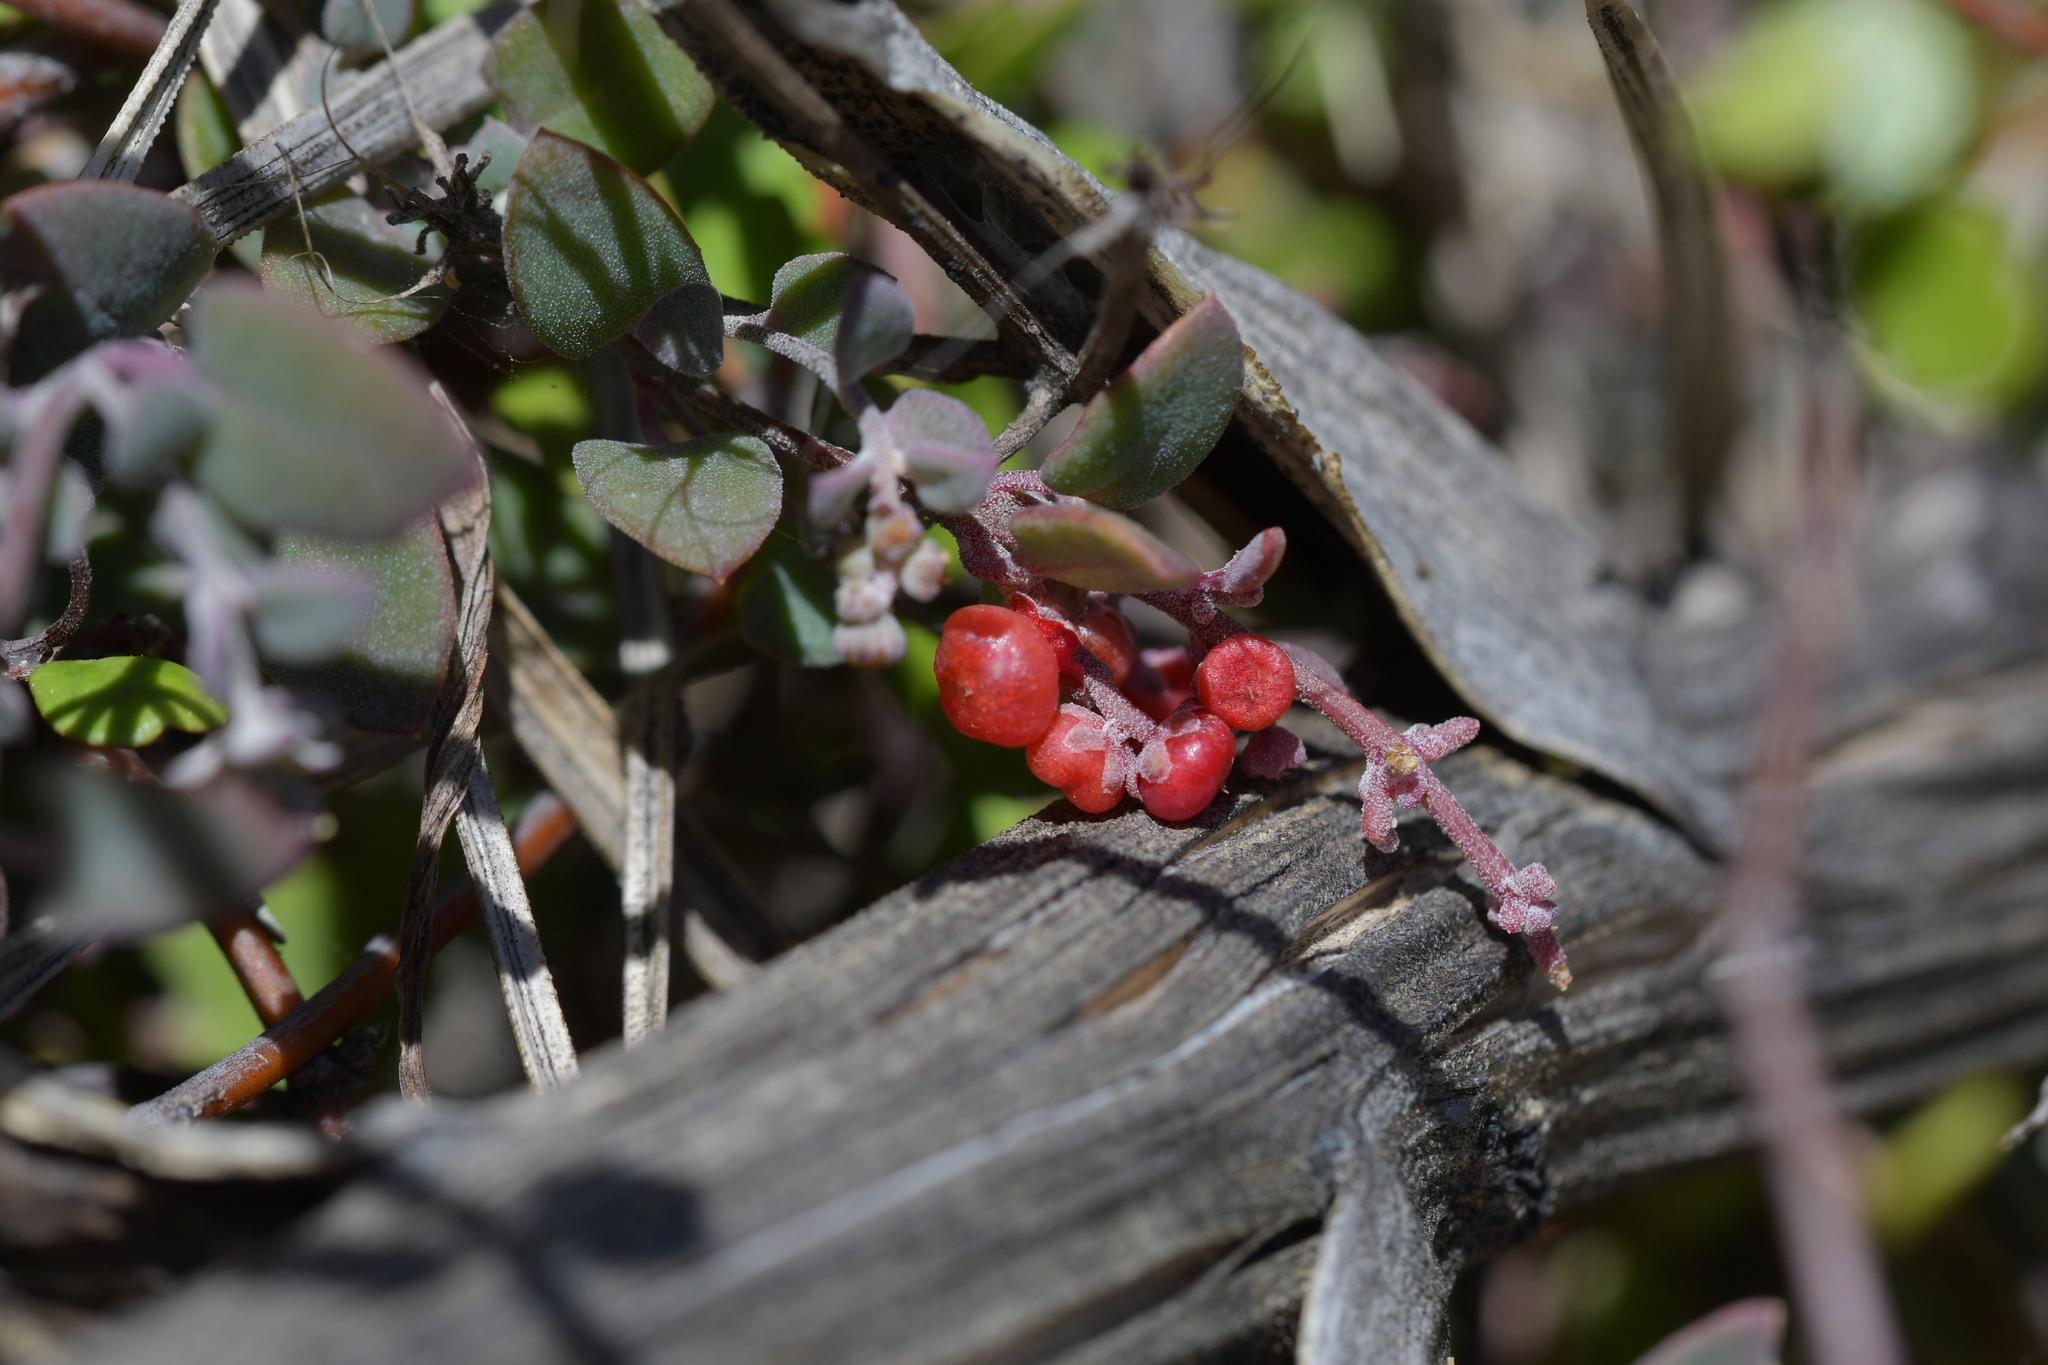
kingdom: Plantae
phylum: Tracheophyta
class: Magnoliopsida
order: Caryophyllales
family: Amaranthaceae
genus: Chenopodium
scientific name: Chenopodium triandrum
